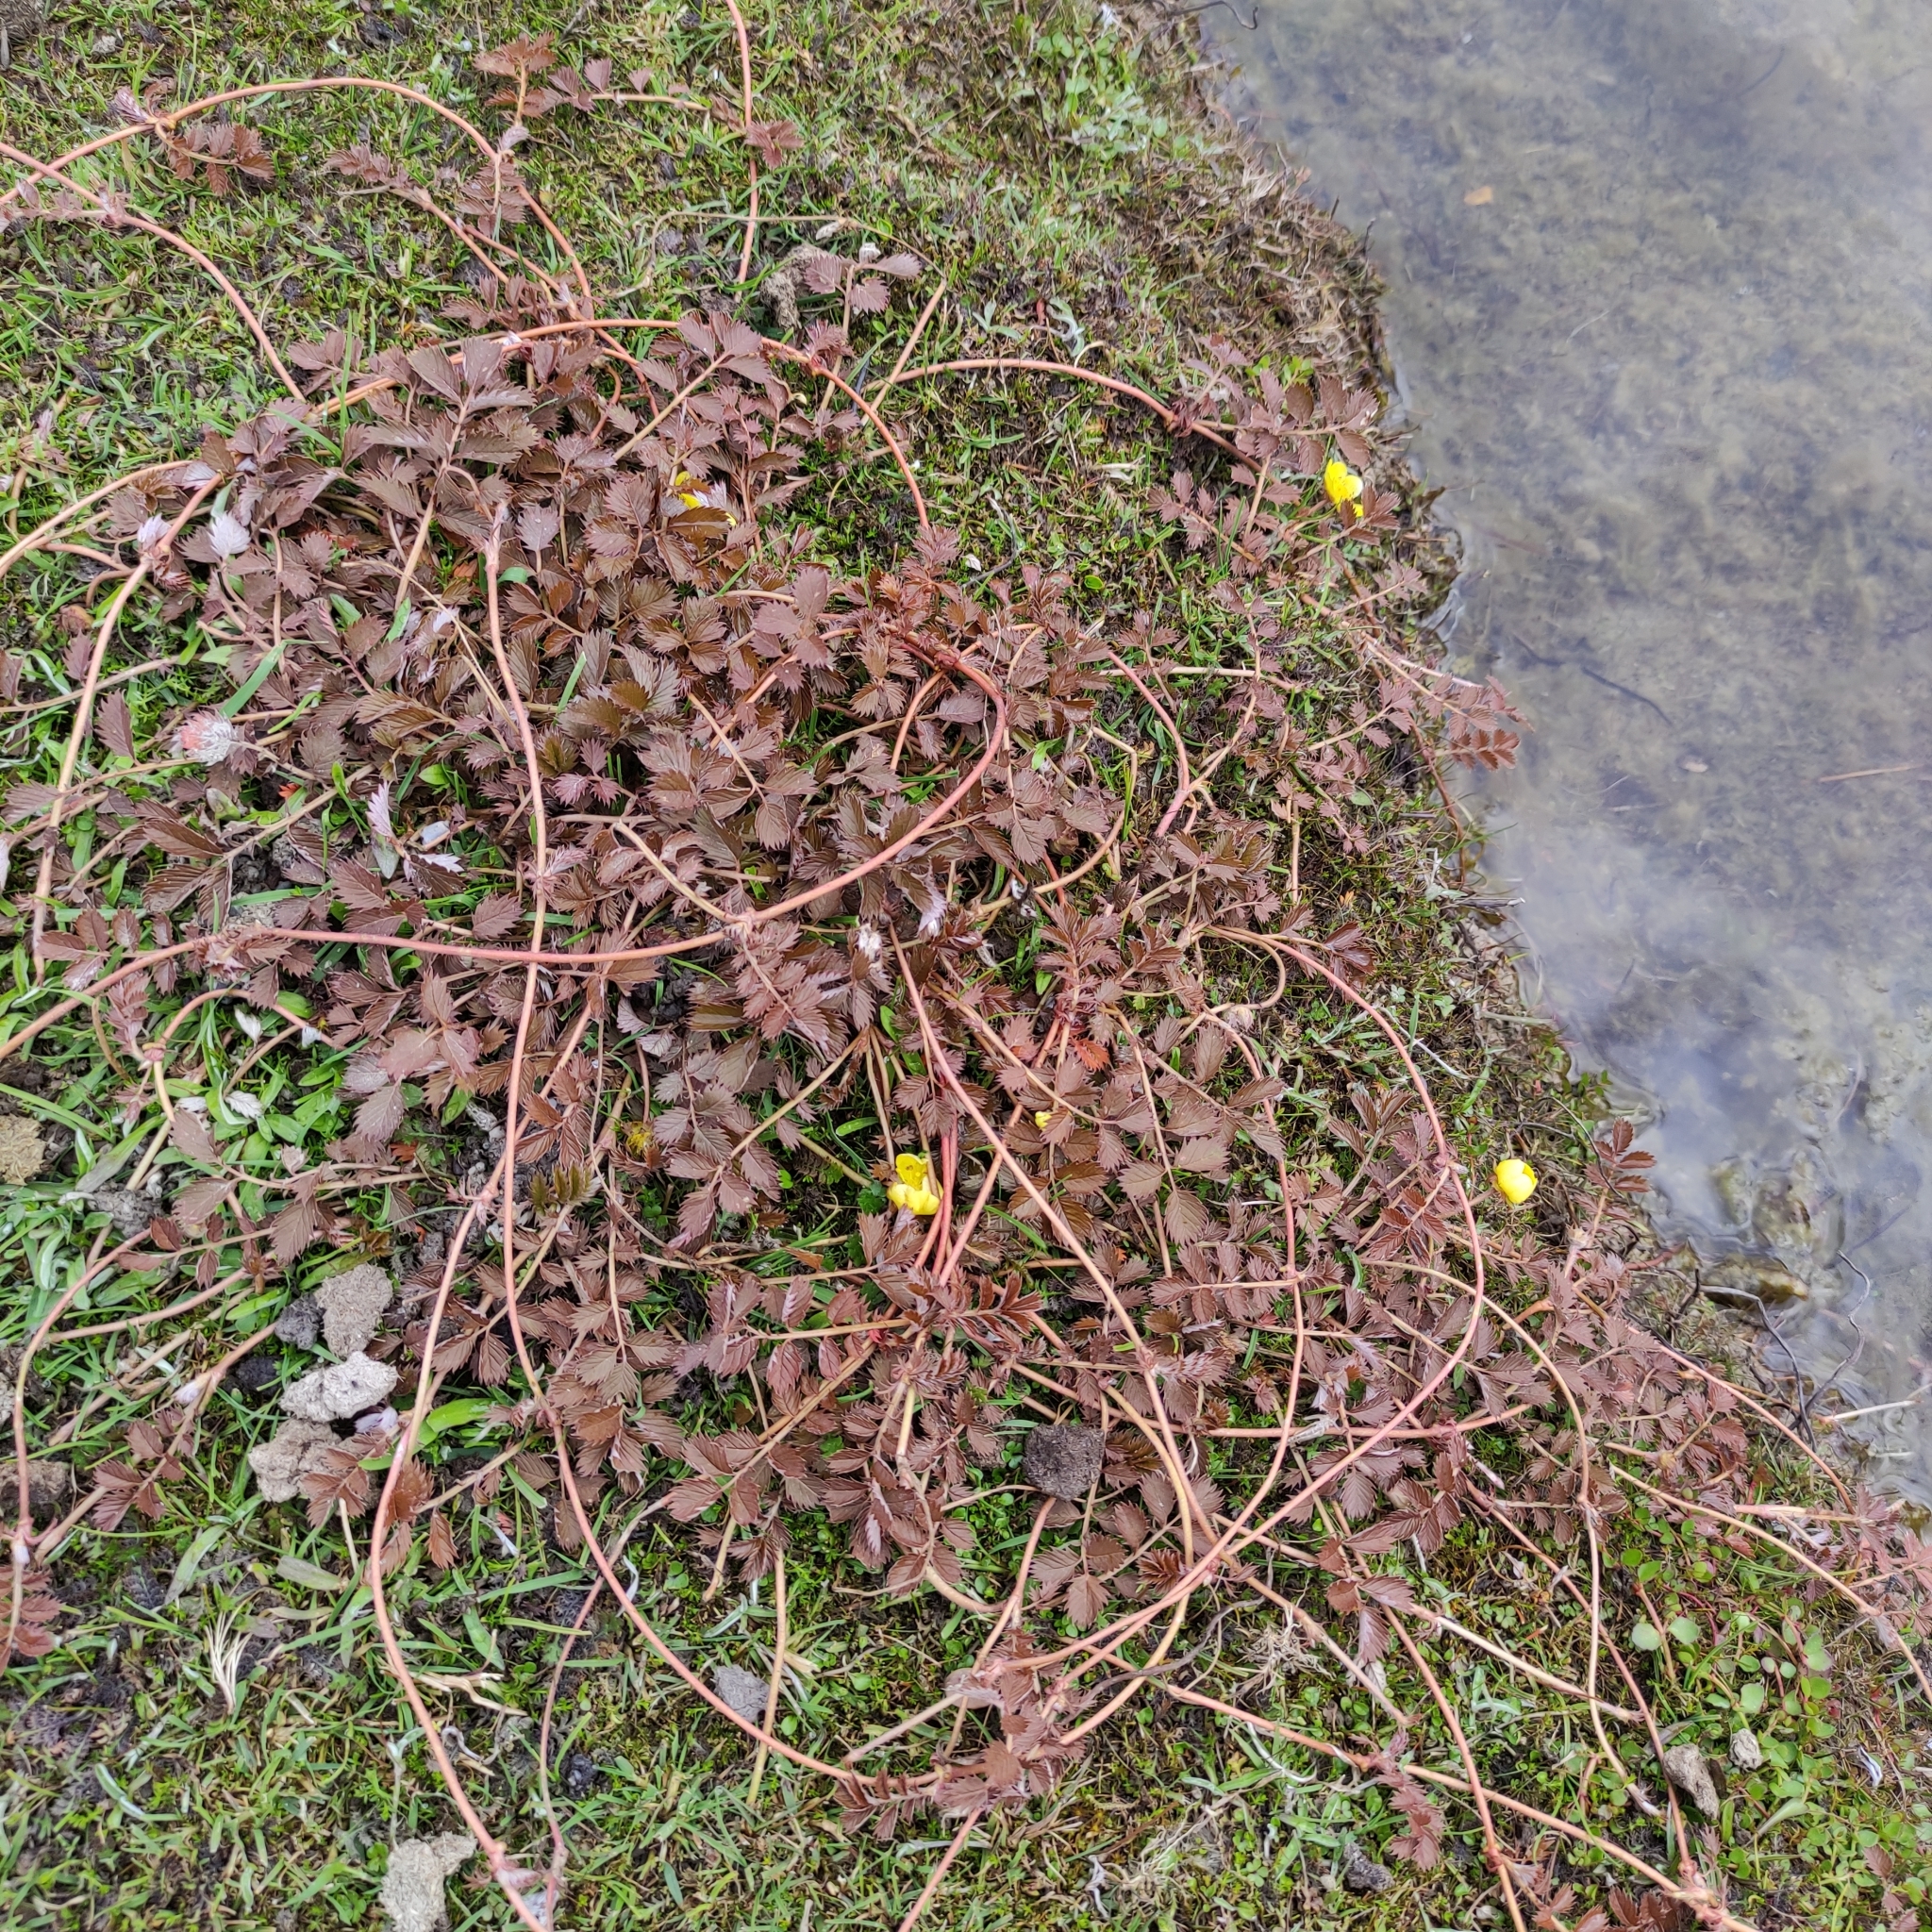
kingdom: Plantae
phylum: Tracheophyta
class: Magnoliopsida
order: Rosales
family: Rosaceae
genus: Argentina
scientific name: Argentina anserinoides
